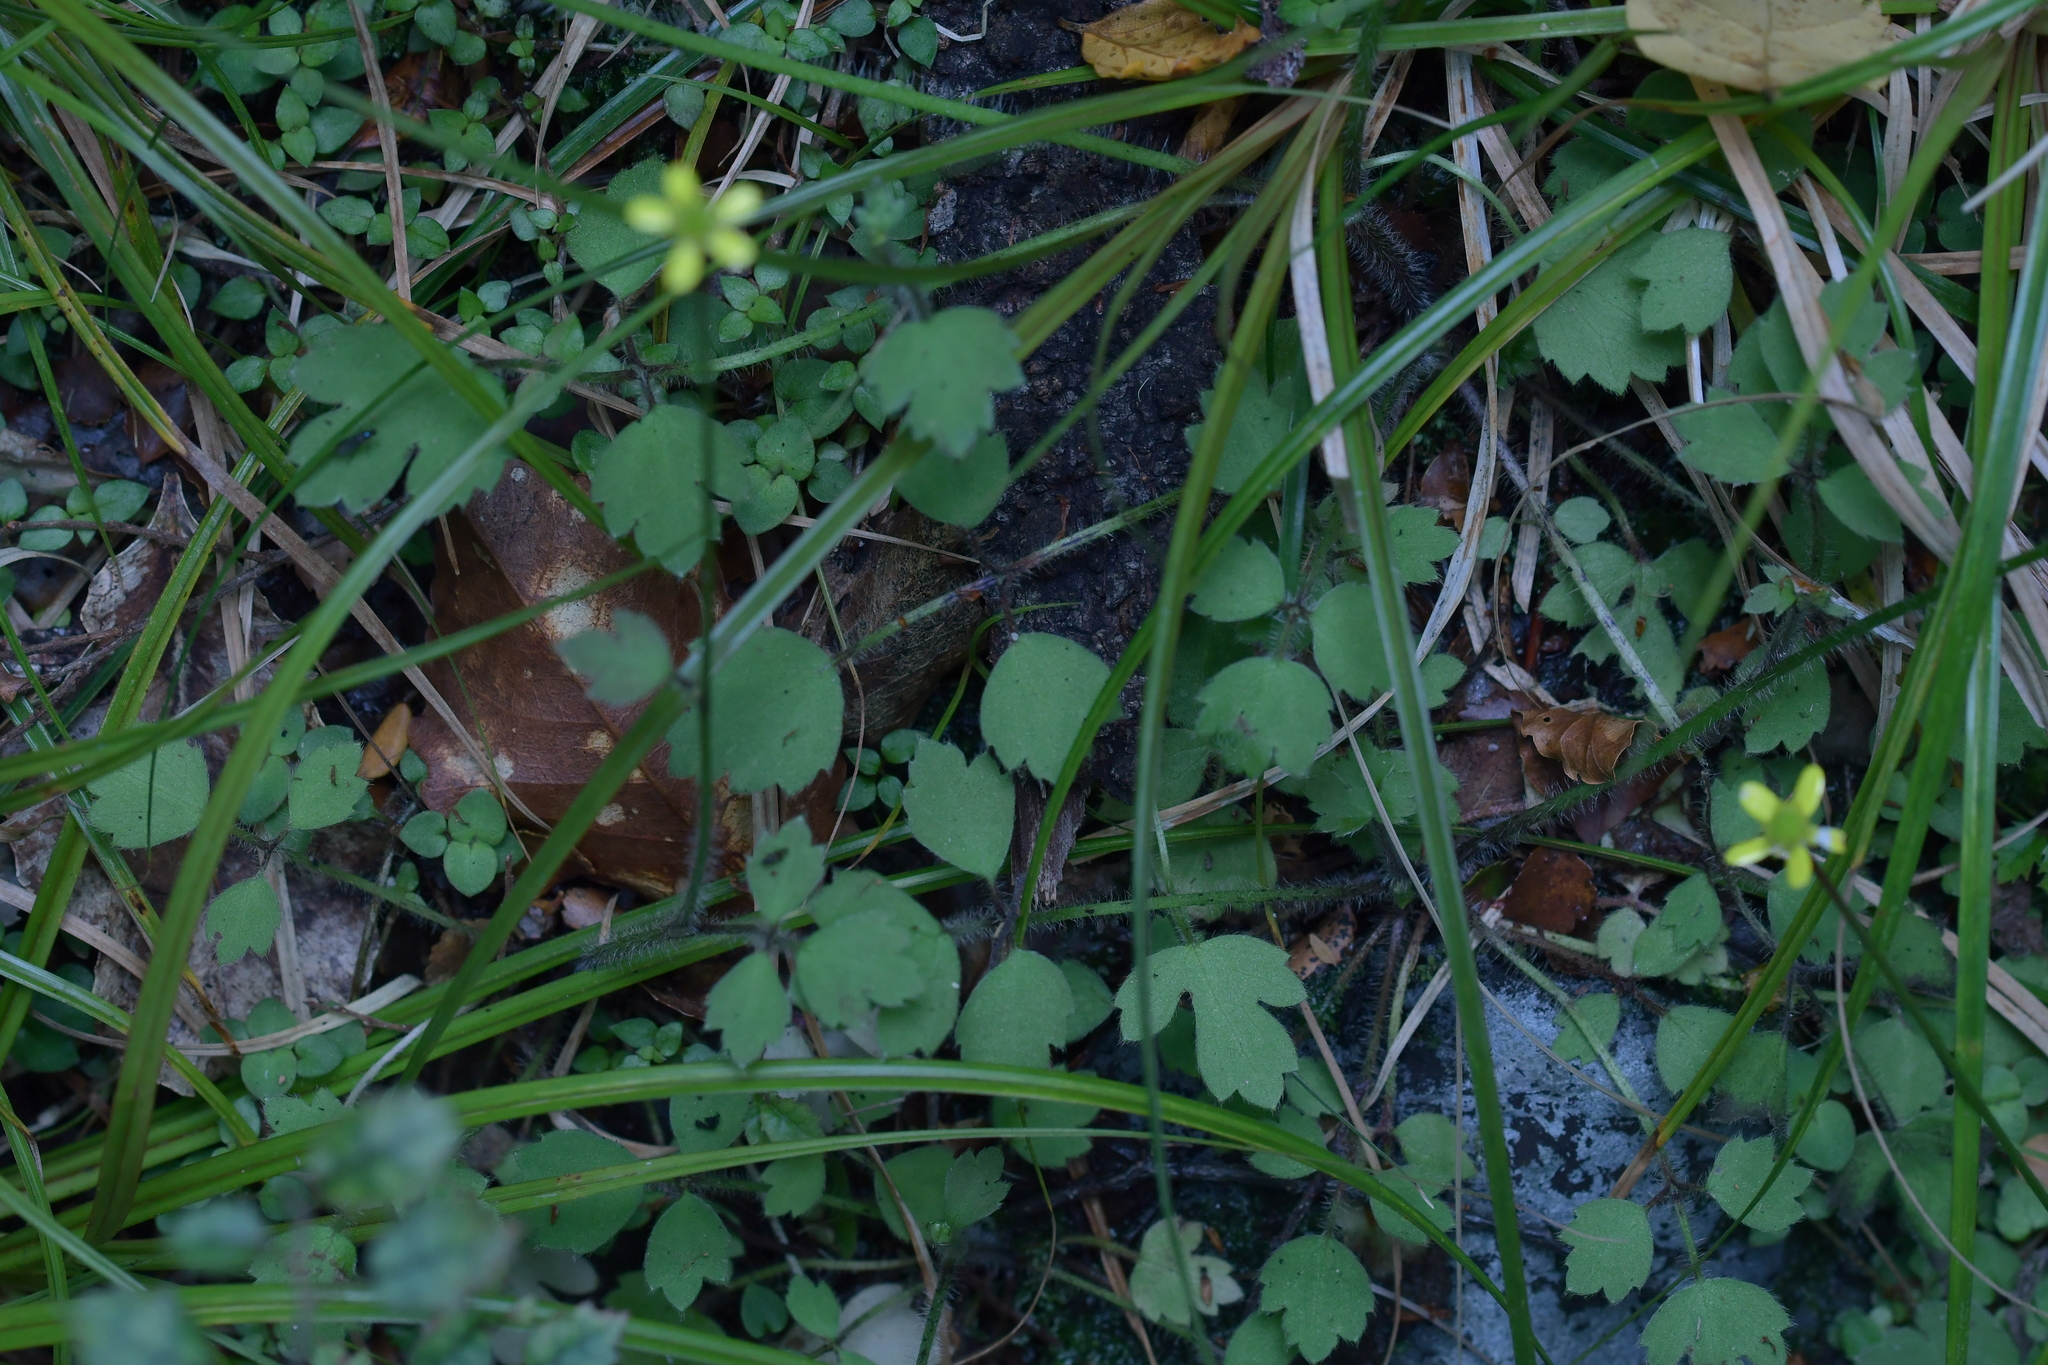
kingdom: Plantae
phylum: Tracheophyta
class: Magnoliopsida
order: Ranunculales
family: Ranunculaceae
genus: Ranunculus
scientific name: Ranunculus reflexus
